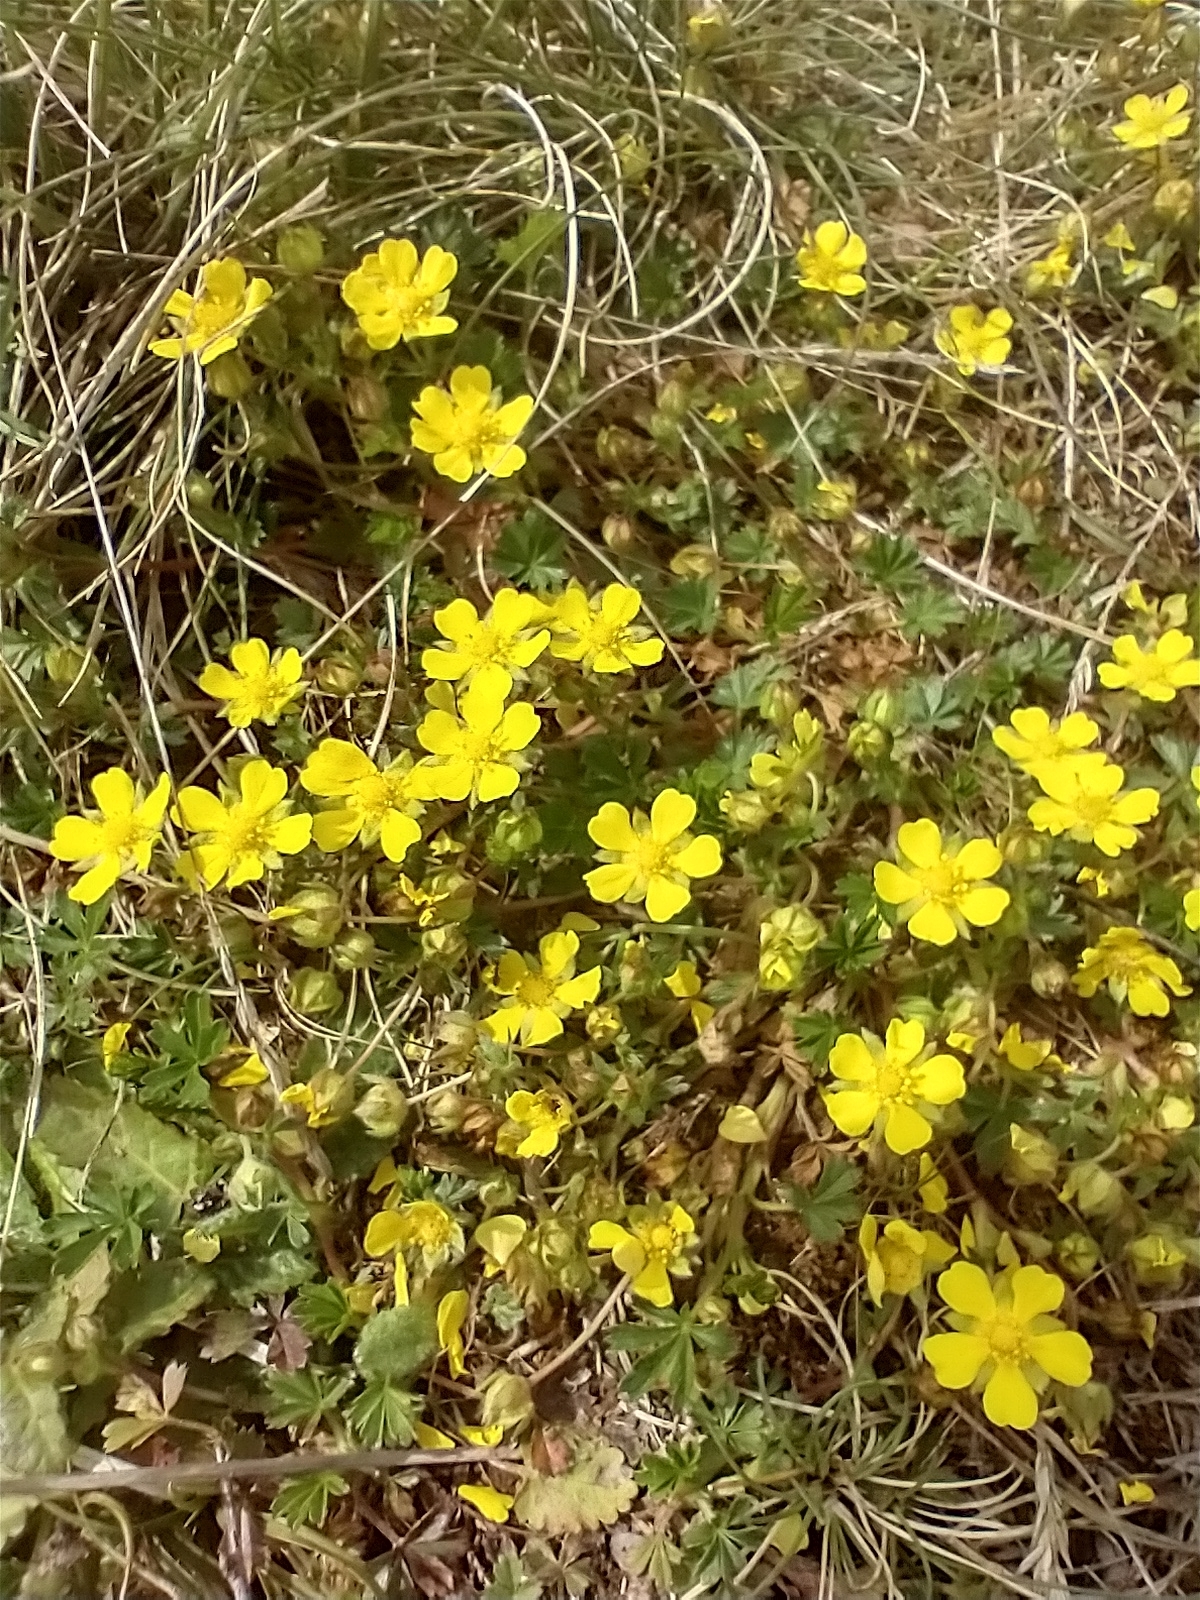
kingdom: Plantae
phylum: Tracheophyta
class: Magnoliopsida
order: Rosales
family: Rosaceae
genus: Potentilla
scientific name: Potentilla verna
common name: Spring cinquefoil
